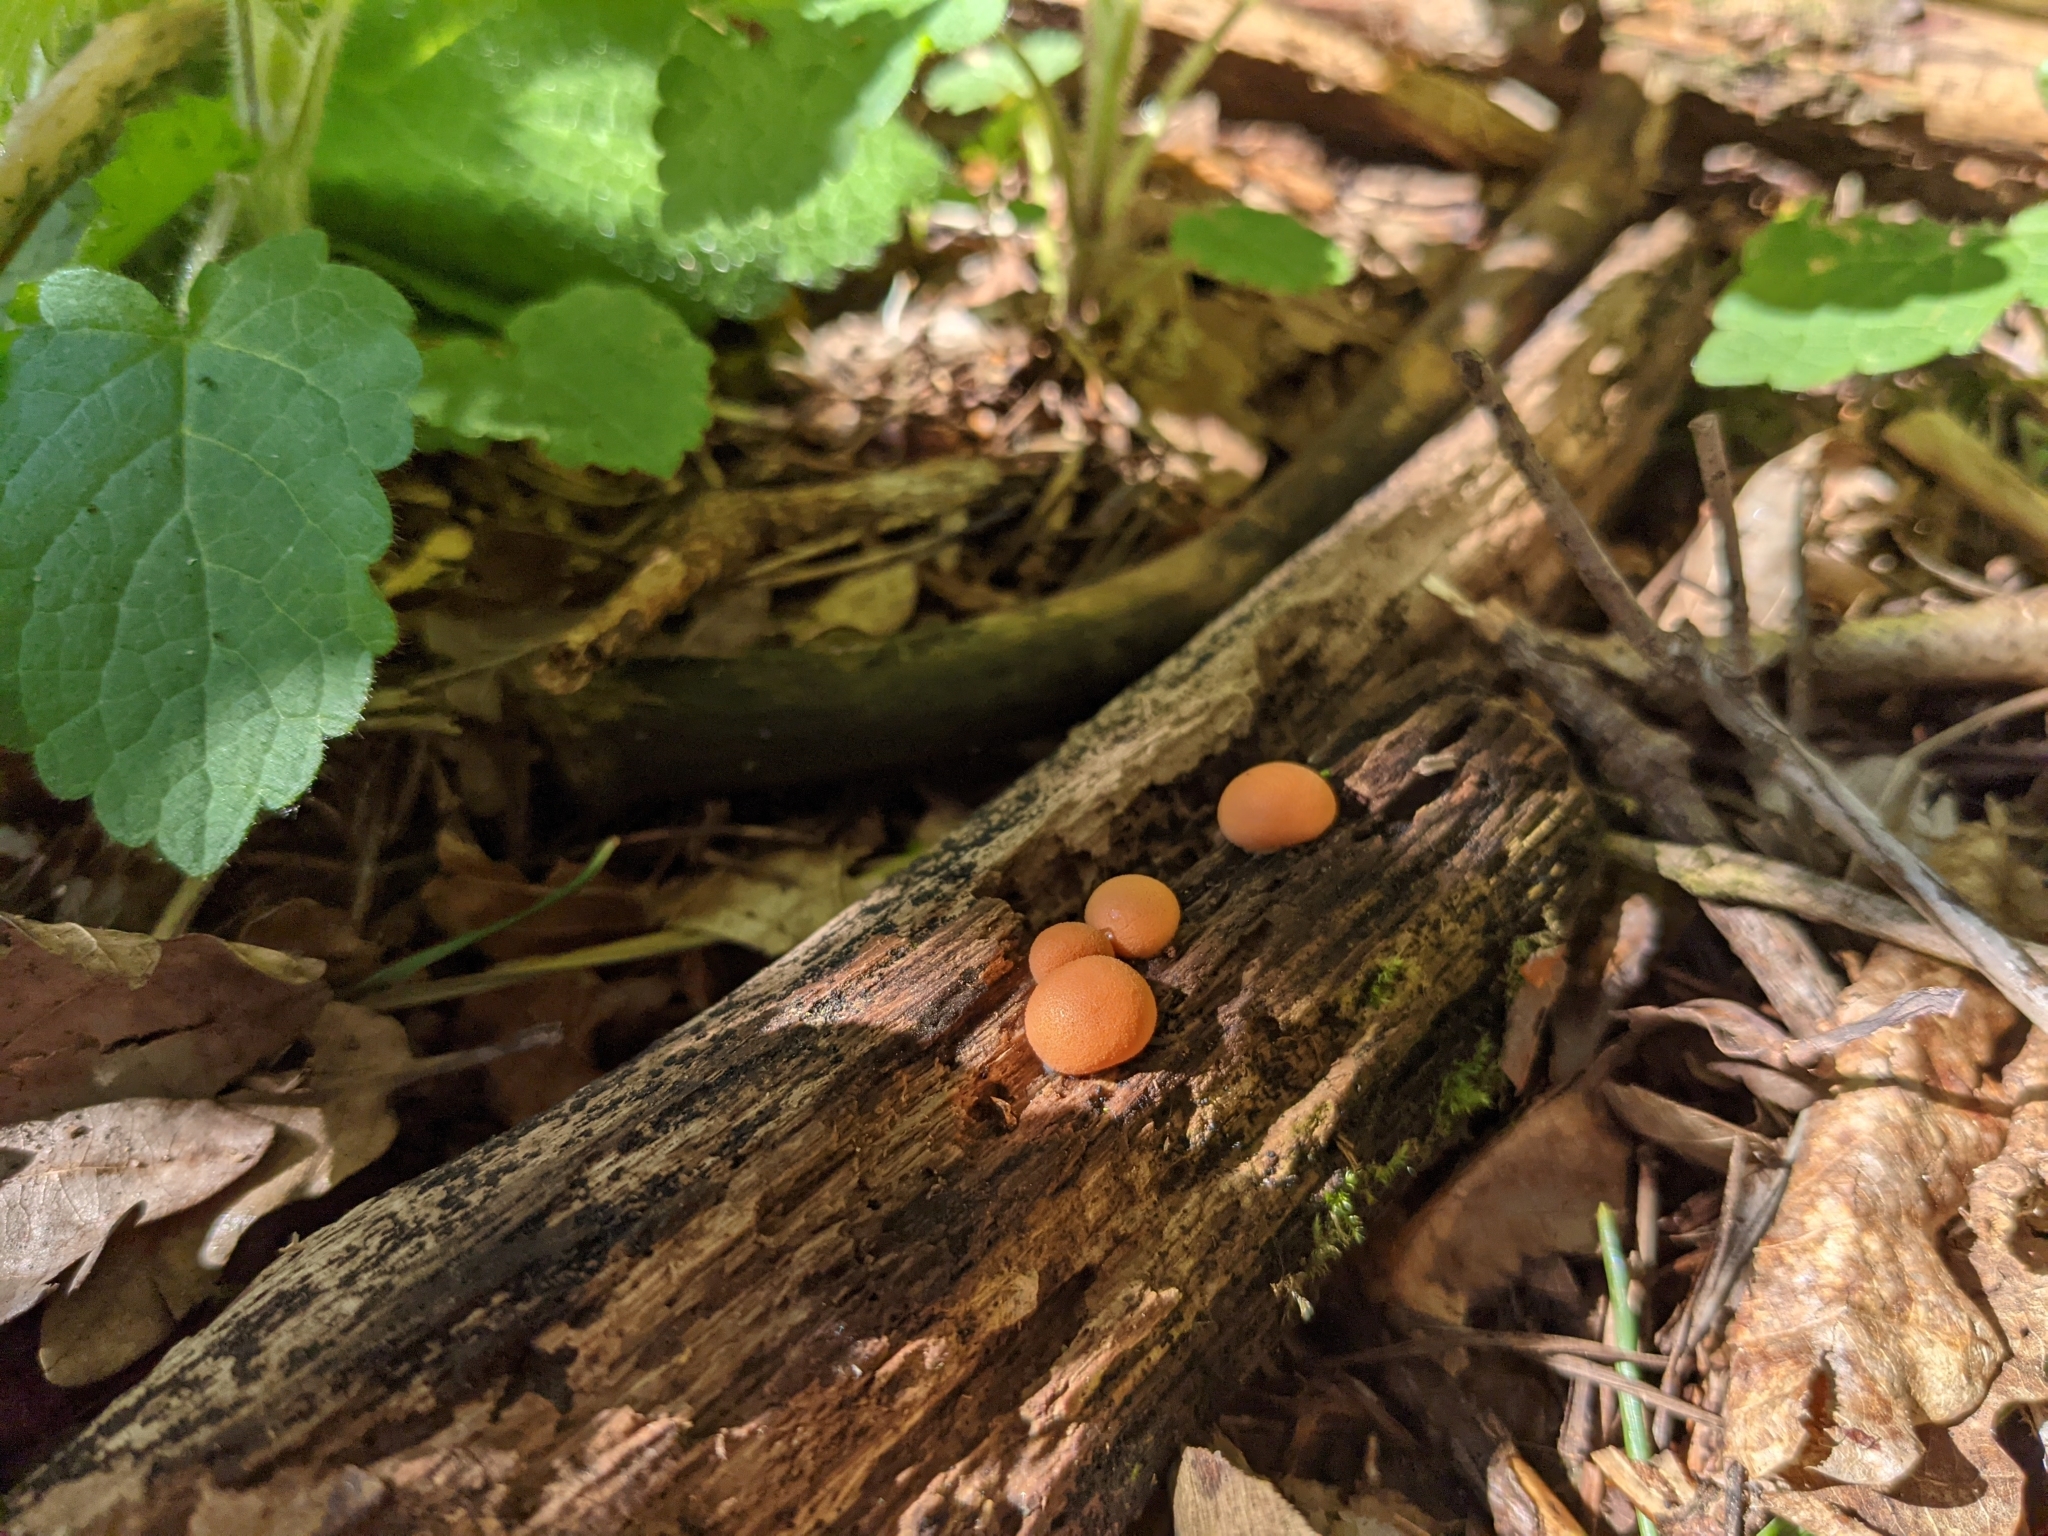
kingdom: Protozoa
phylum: Mycetozoa
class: Myxomycetes
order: Cribrariales
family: Tubiferaceae
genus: Lycogala
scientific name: Lycogala epidendrum
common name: Wolf's milk
